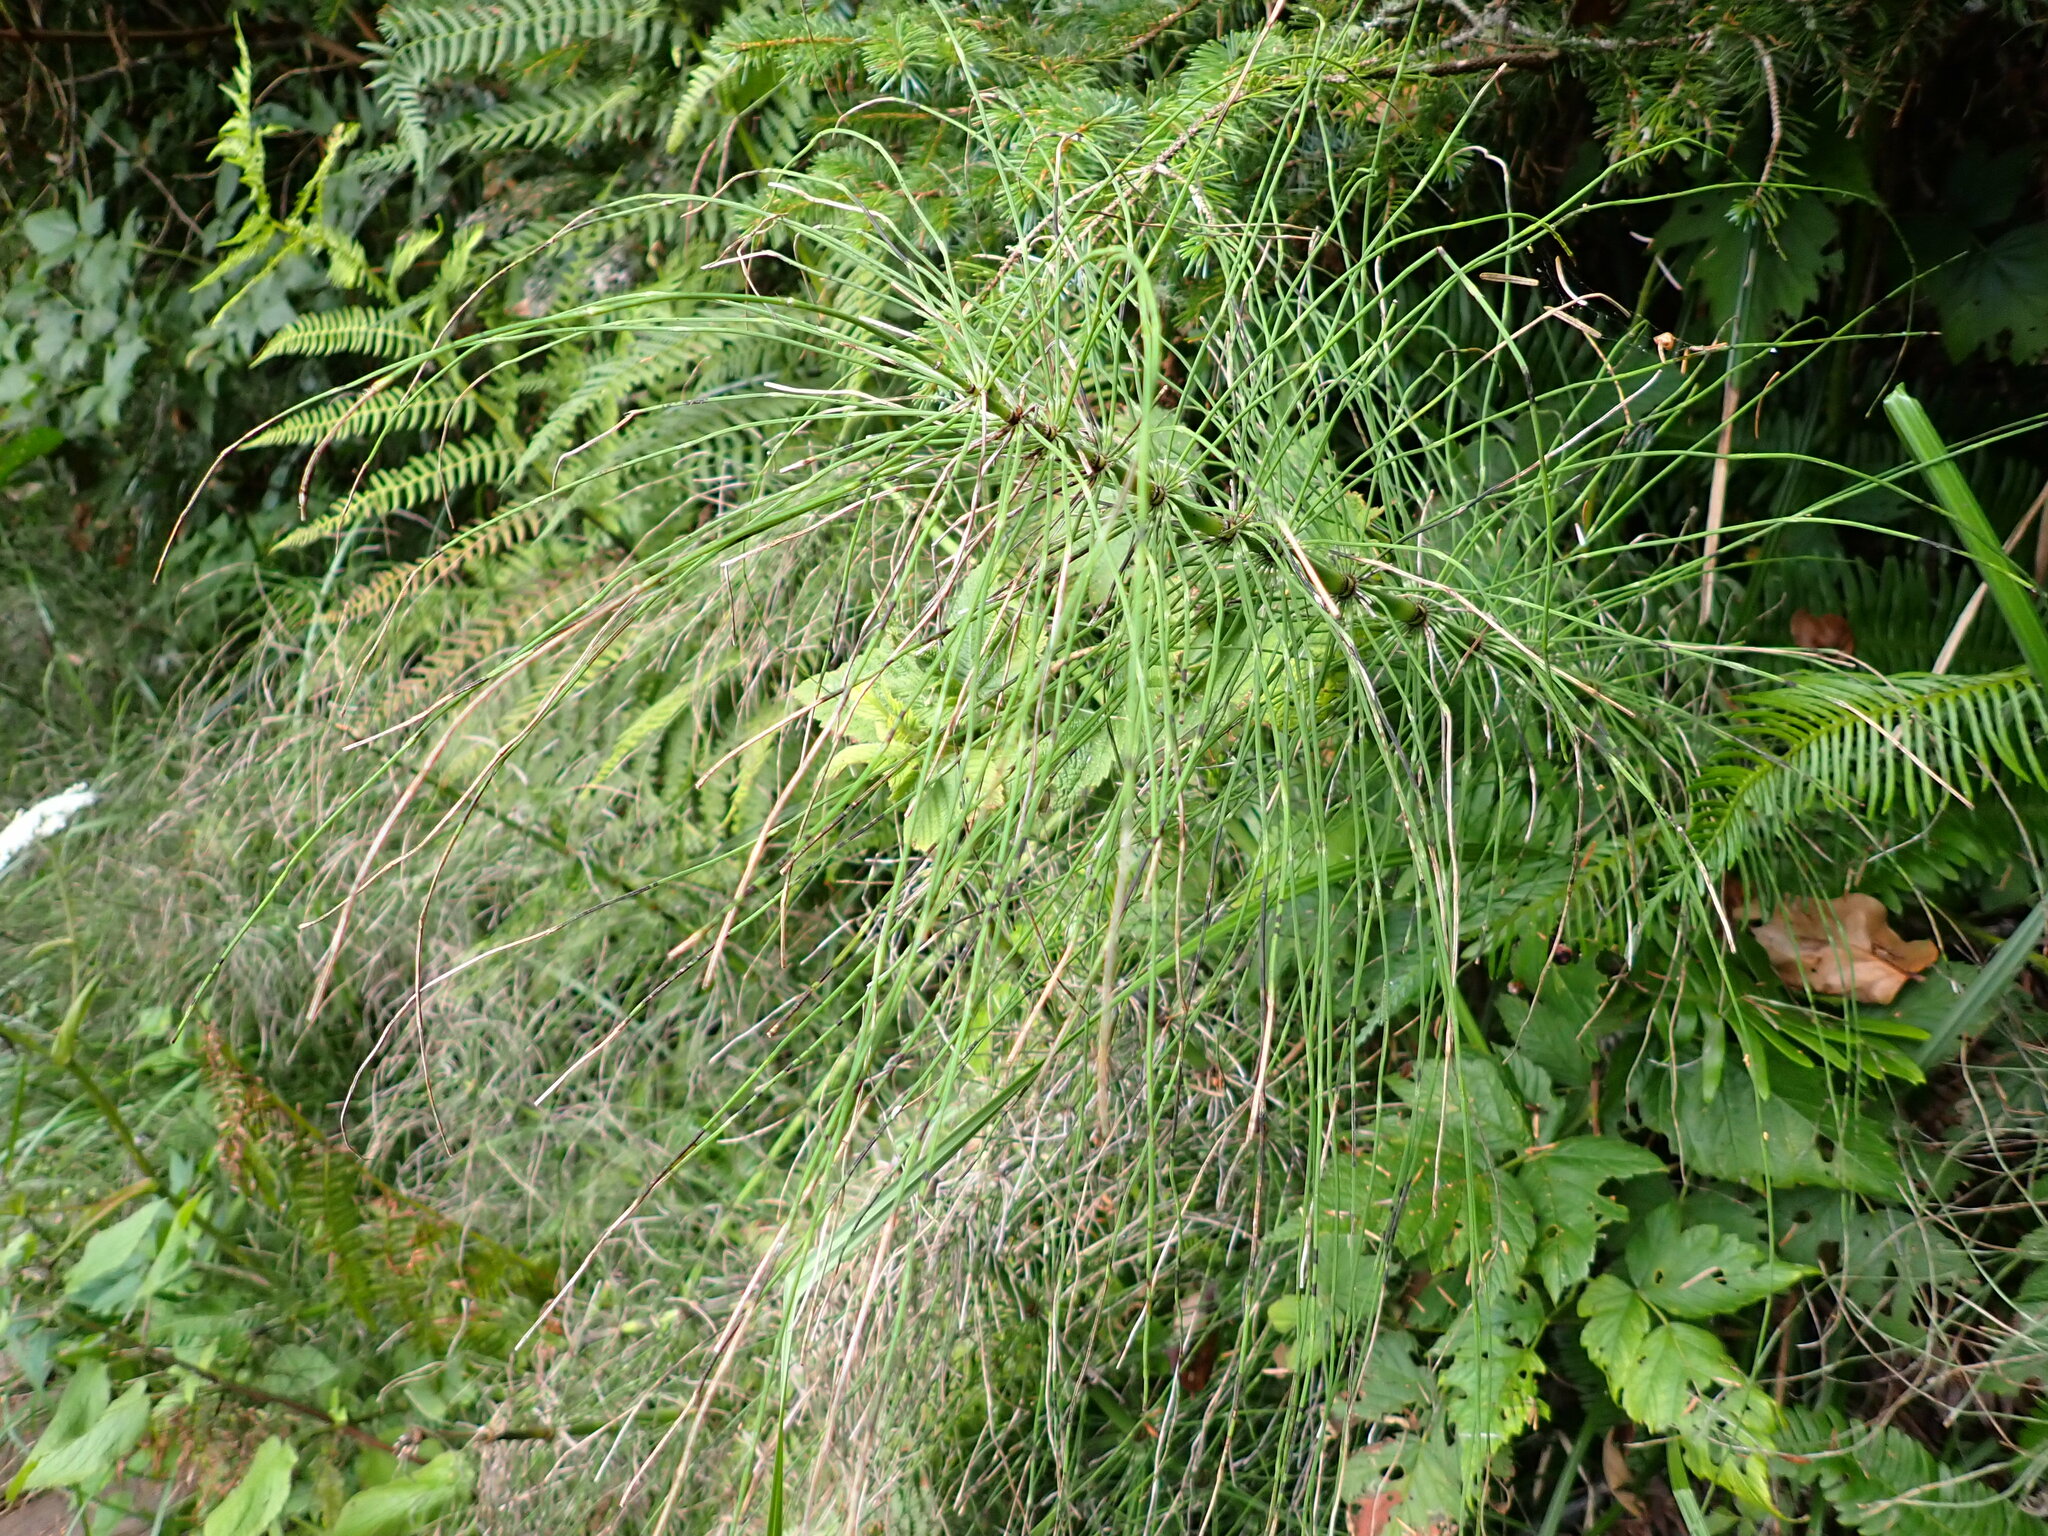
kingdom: Plantae
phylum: Tracheophyta
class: Polypodiopsida
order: Equisetales
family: Equisetaceae
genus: Equisetum
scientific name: Equisetum braunii
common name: Braun's horsetail
